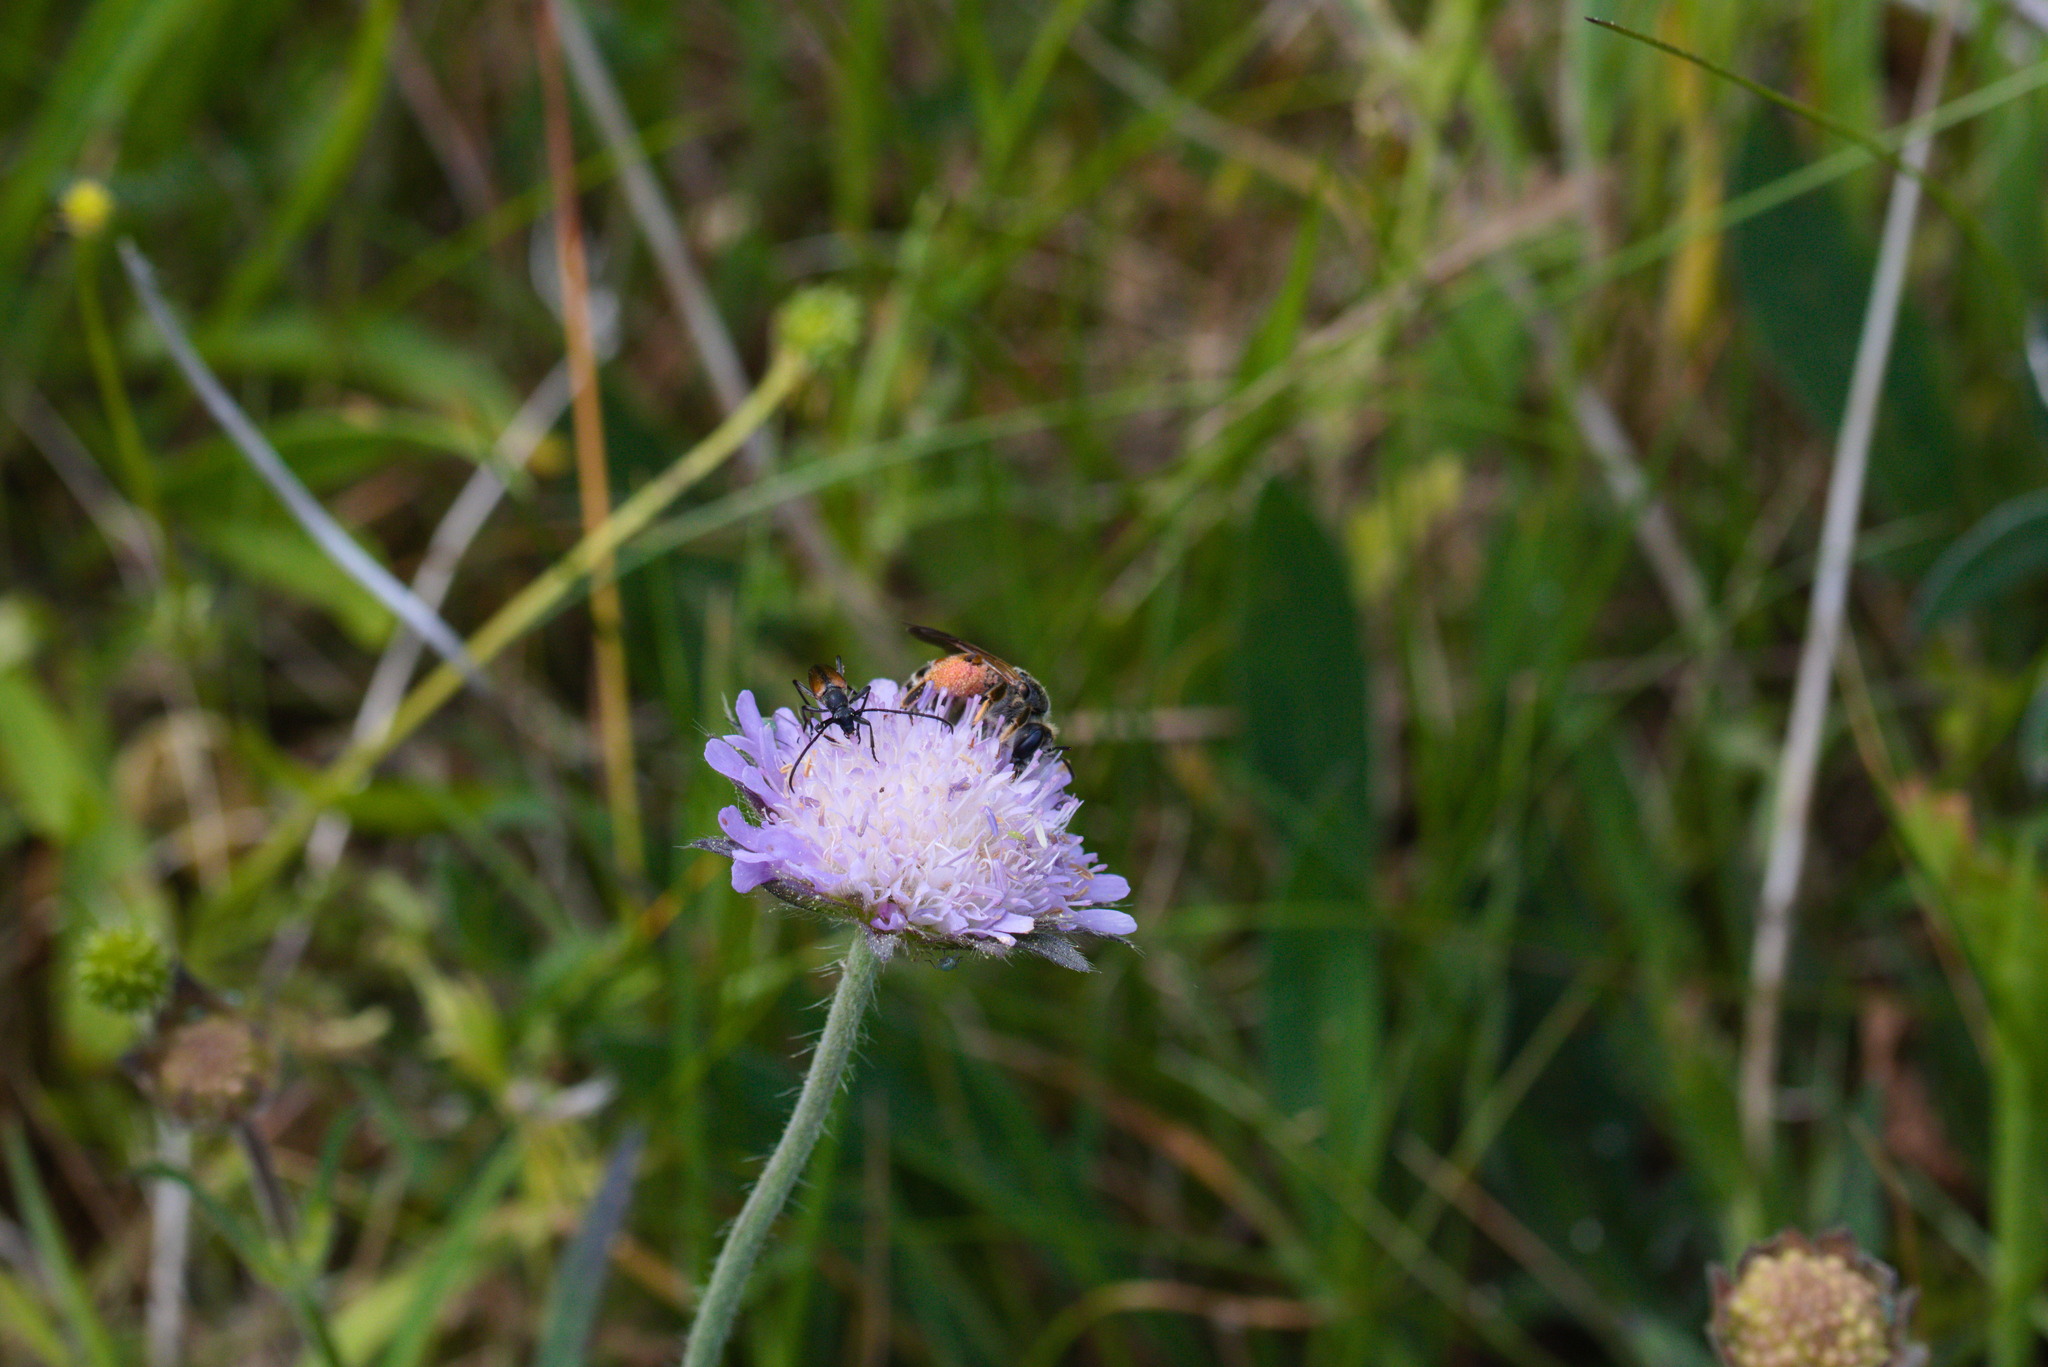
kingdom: Animalia
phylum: Arthropoda
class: Insecta
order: Hymenoptera
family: Andrenidae
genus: Andrena
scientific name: Andrena hattorfiana
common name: Large scabious mining bee
